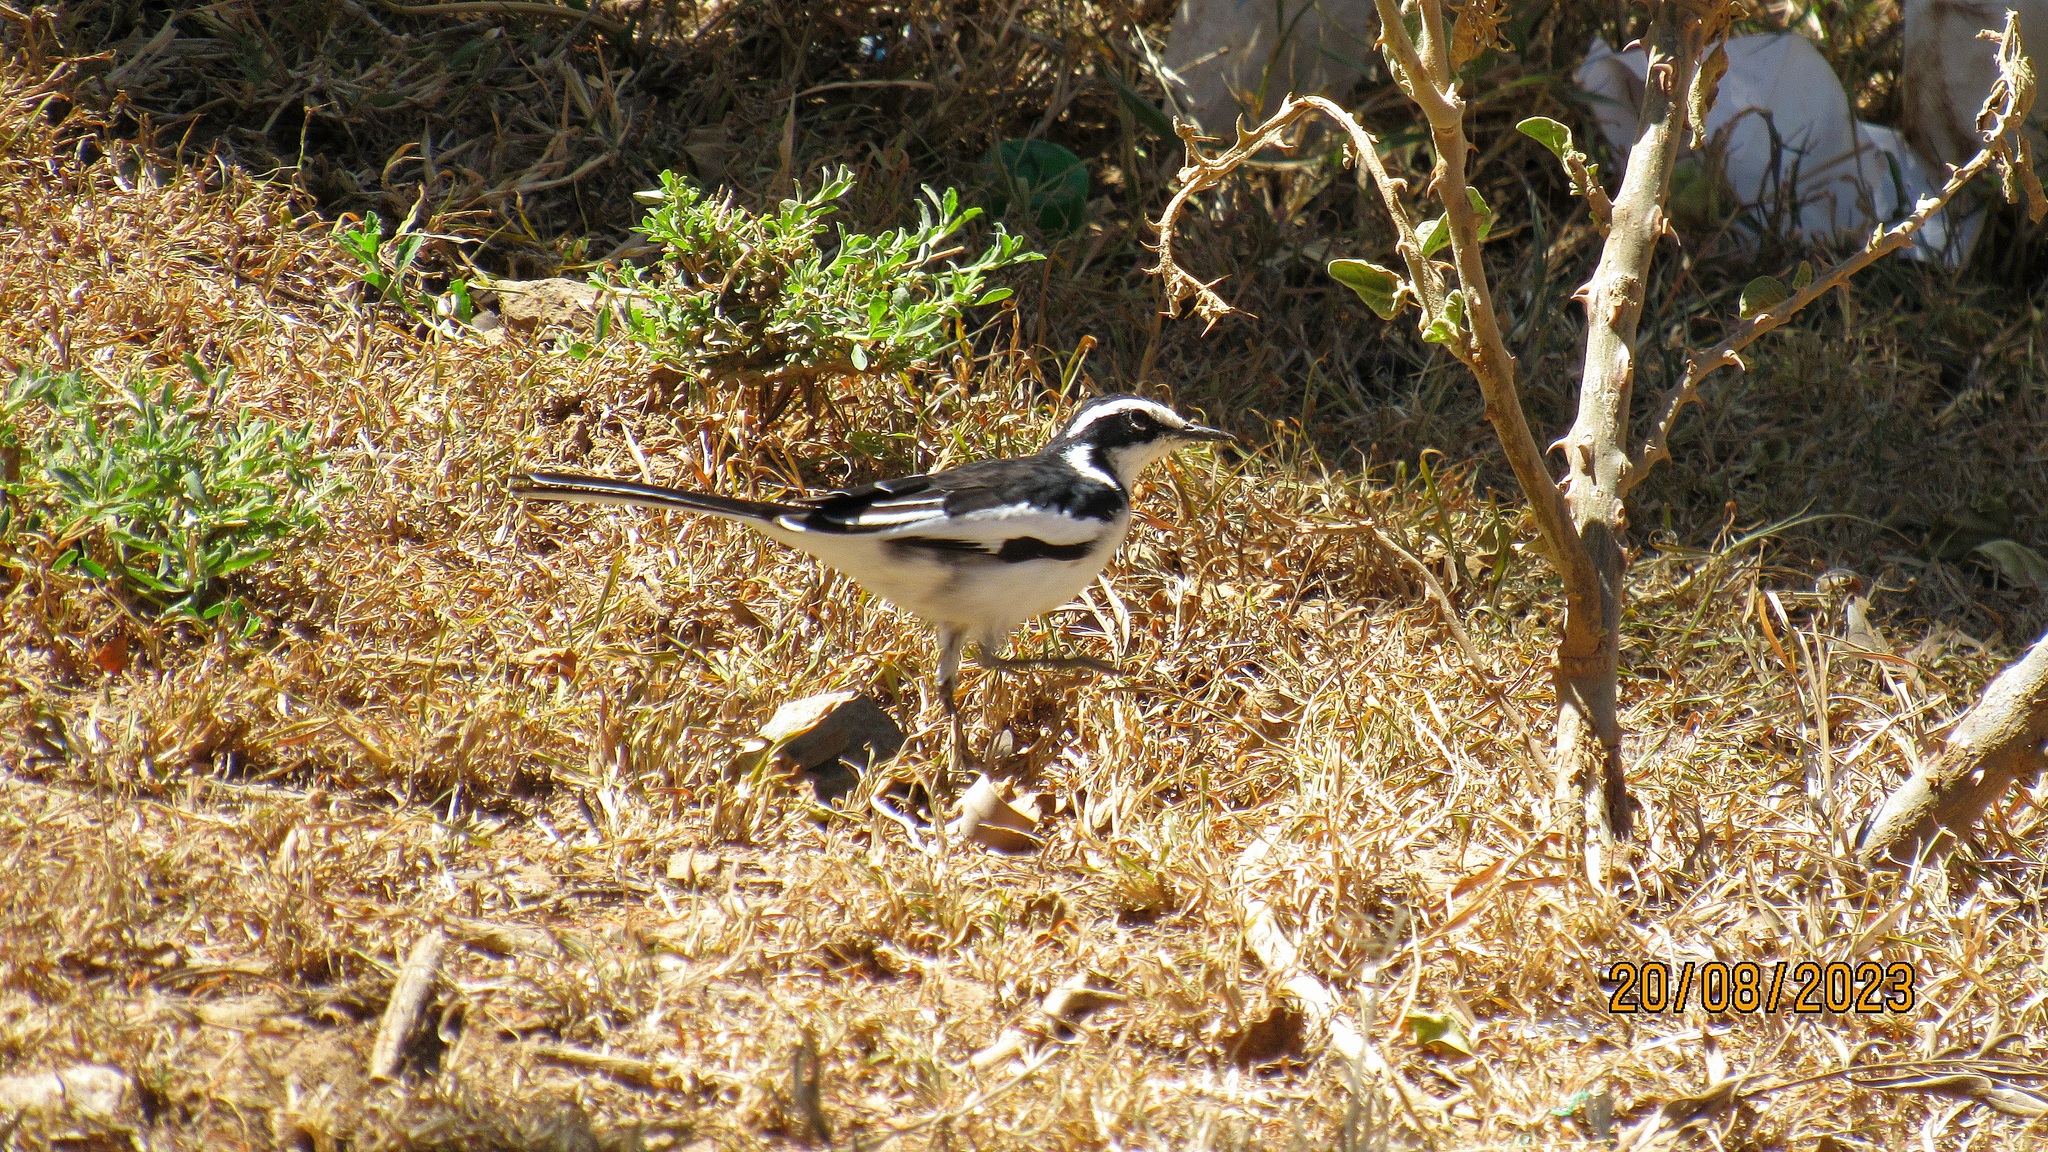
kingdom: Animalia
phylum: Chordata
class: Aves
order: Passeriformes
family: Motacillidae
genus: Motacilla
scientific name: Motacilla aguimp
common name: African pied wagtail
